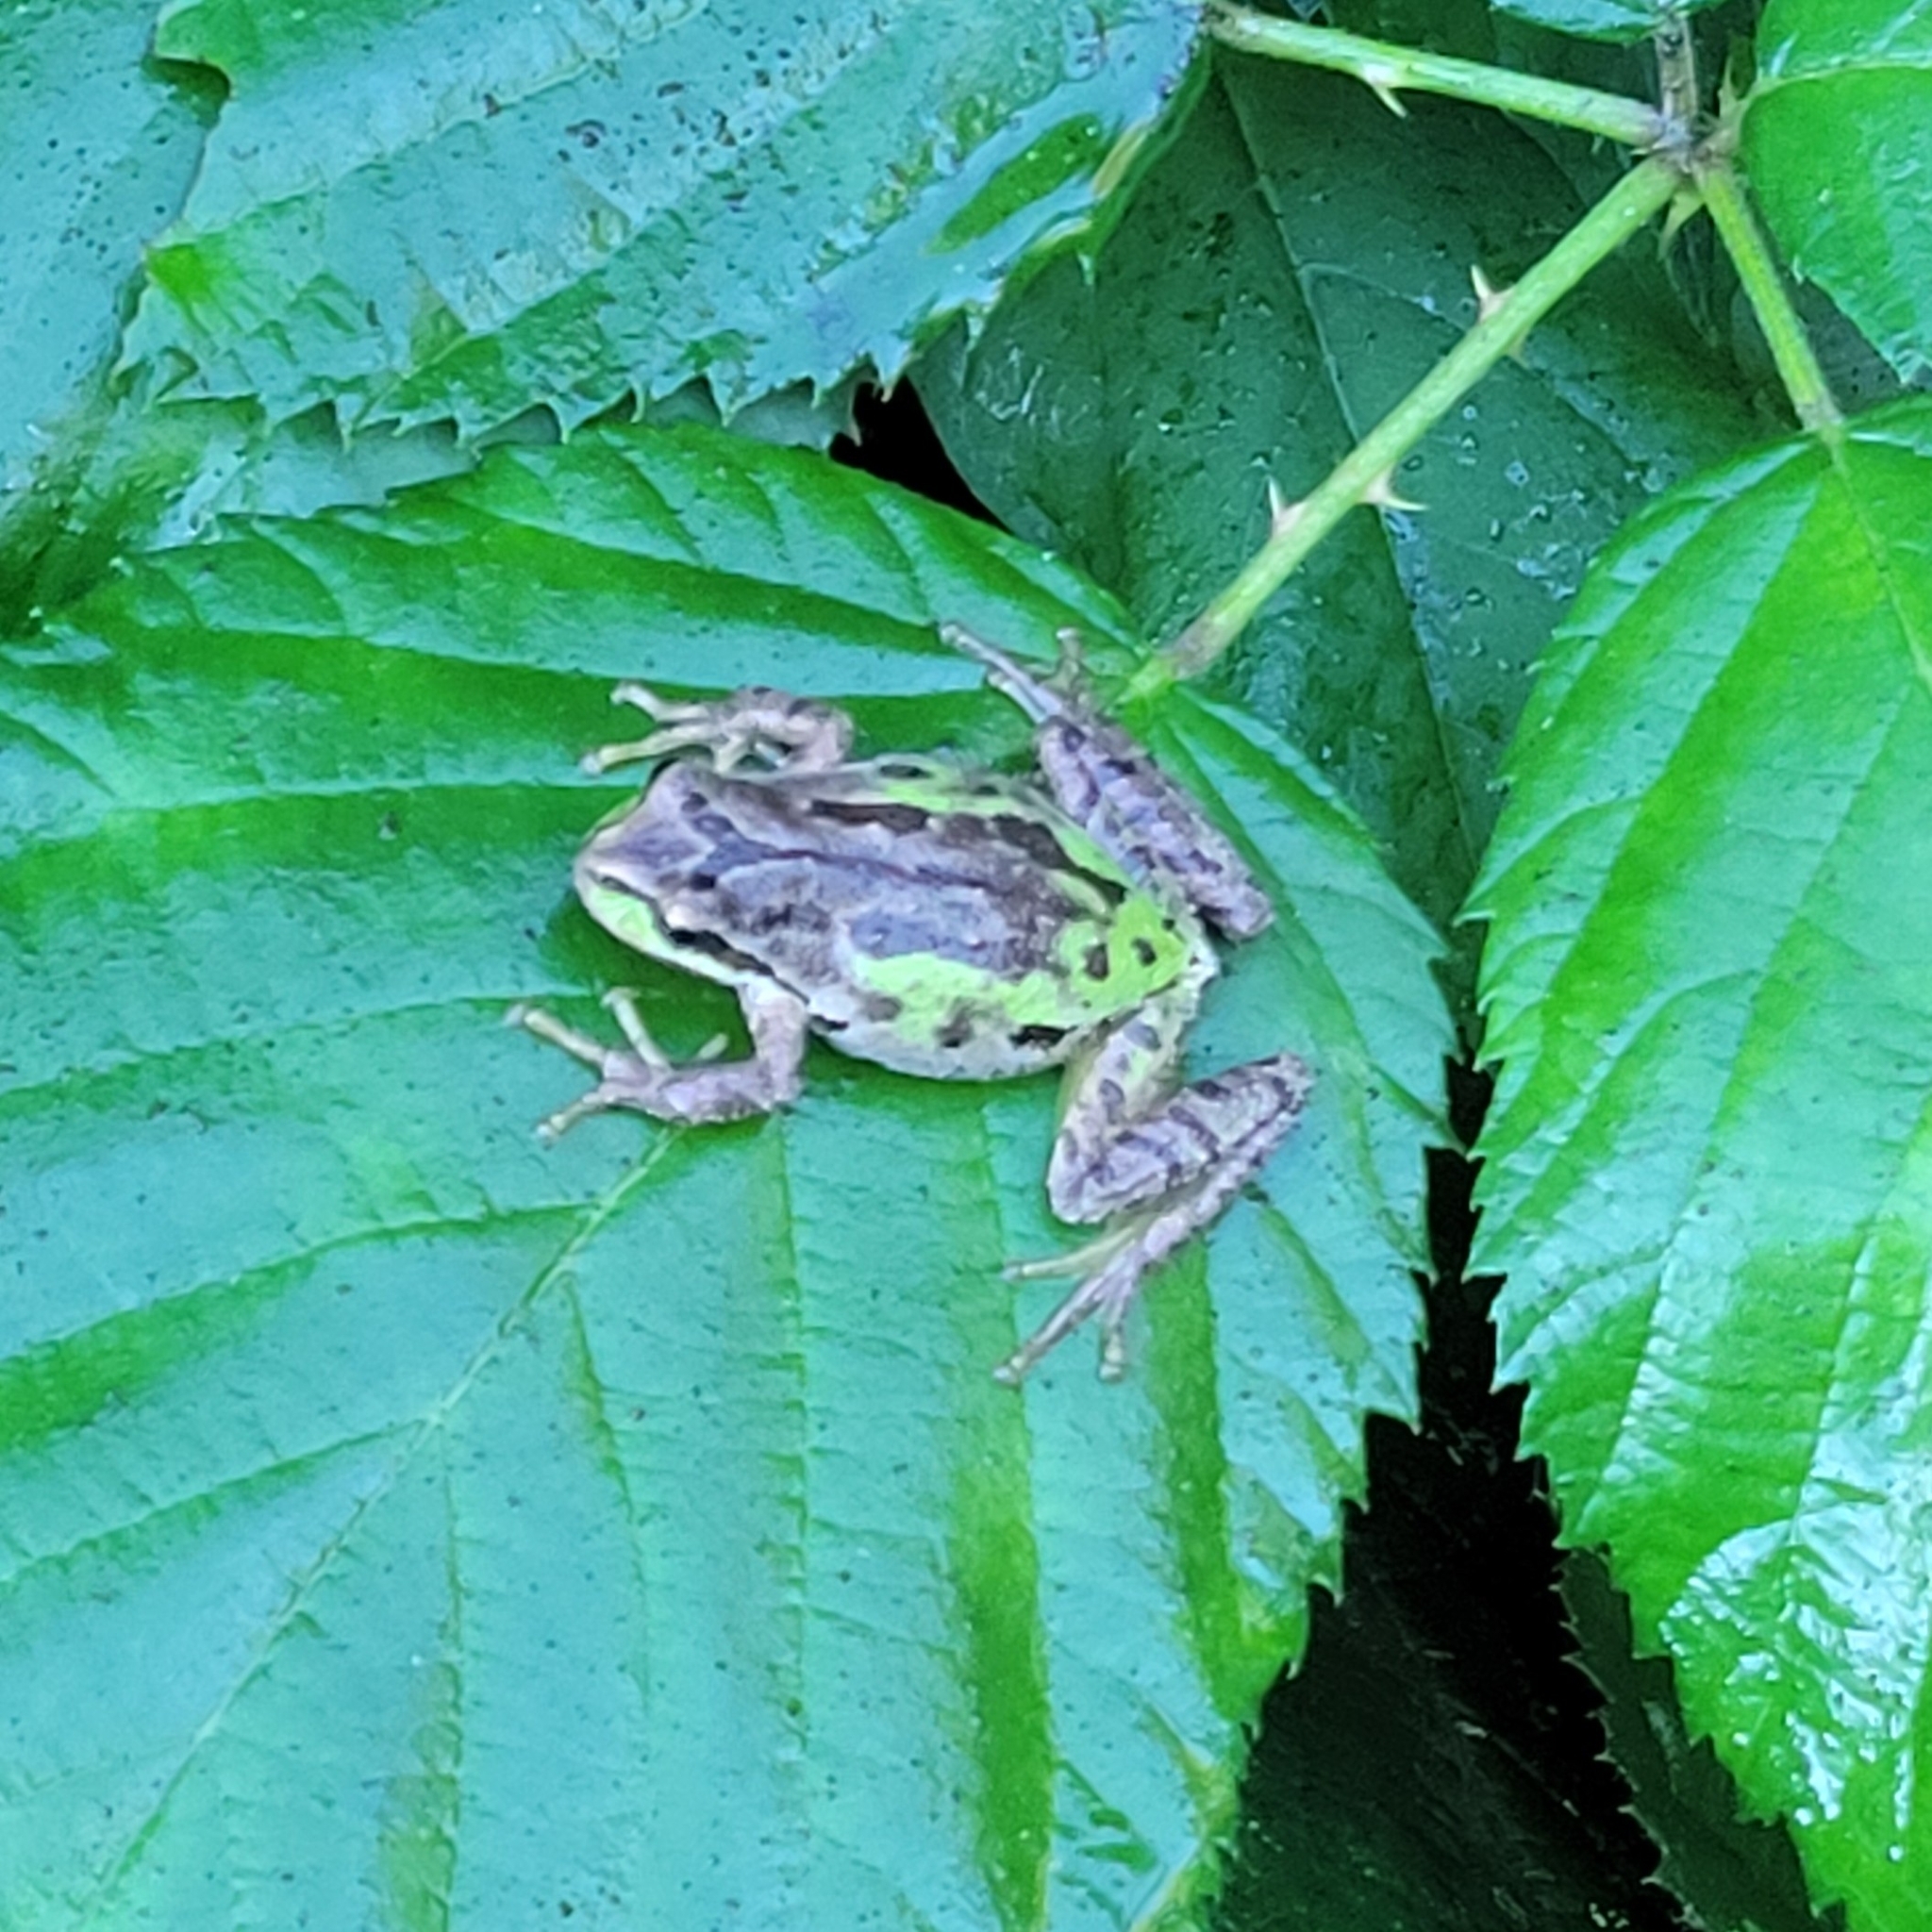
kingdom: Animalia
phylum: Chordata
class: Amphibia
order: Anura
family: Hylidae
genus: Pseudacris
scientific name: Pseudacris regilla
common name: Pacific chorus frog
